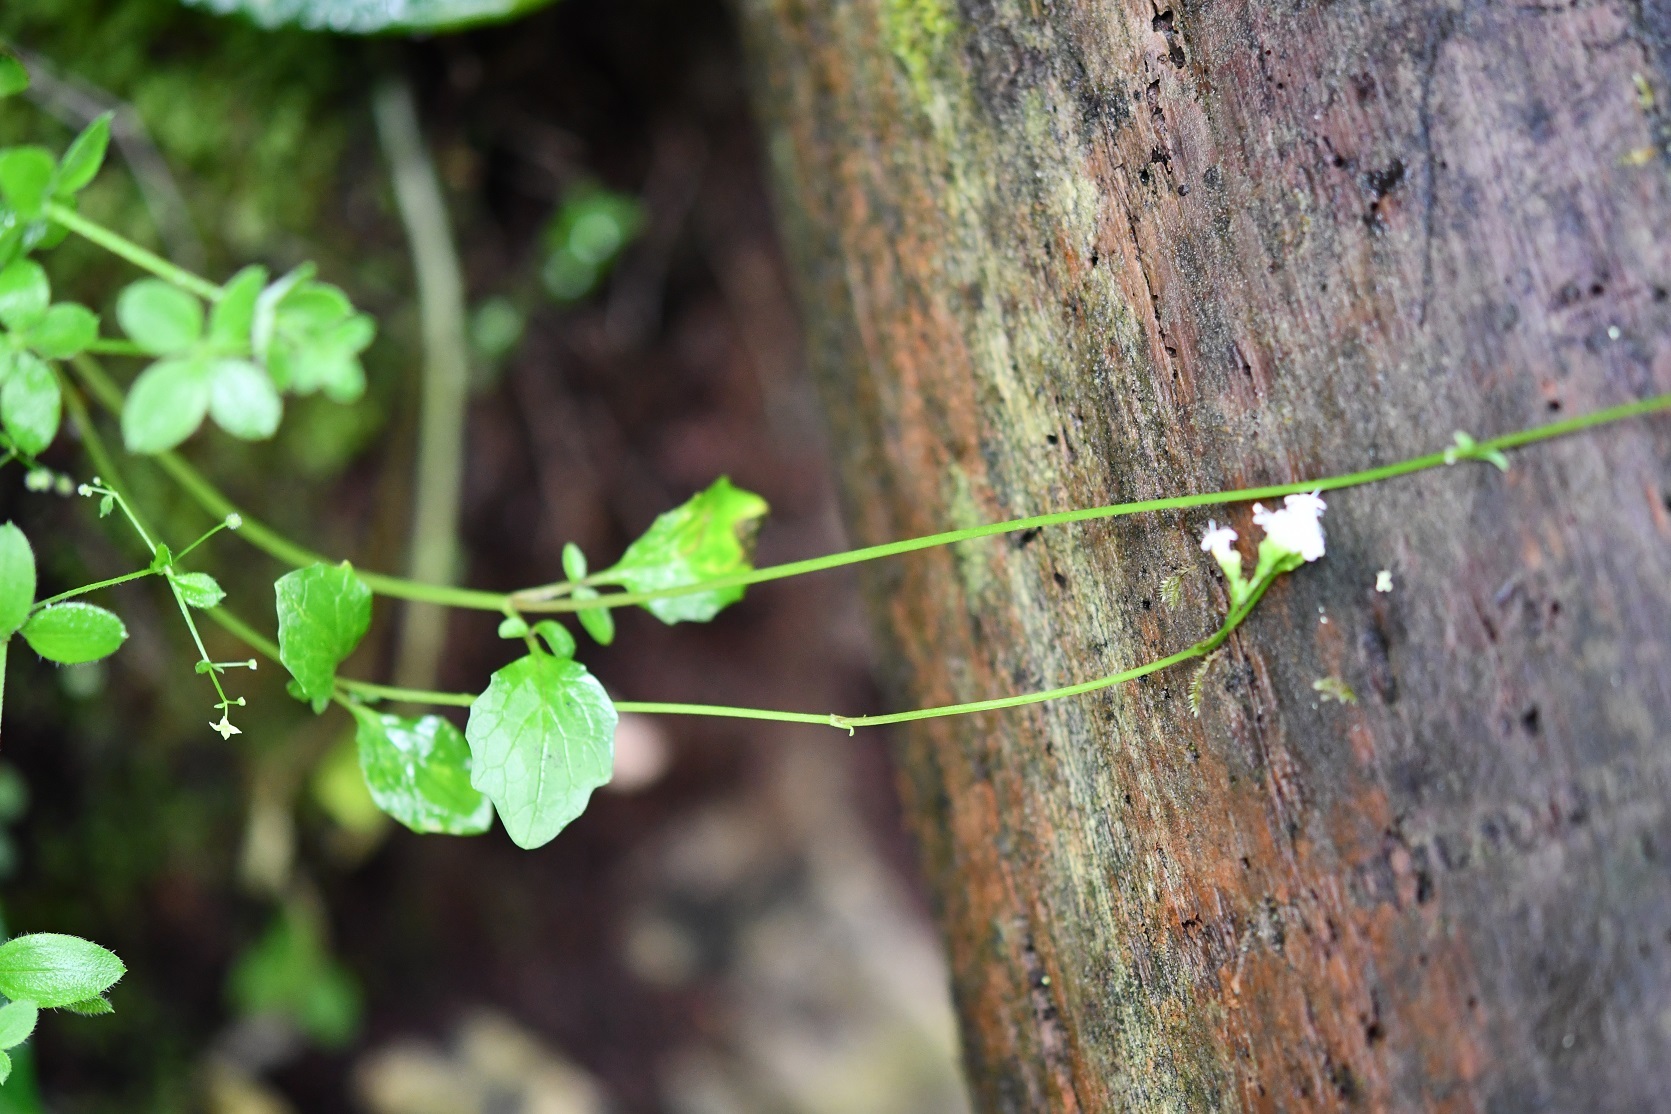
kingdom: Plantae
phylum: Tracheophyta
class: Magnoliopsida
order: Dipsacales
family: Caprifoliaceae
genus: Valeriana
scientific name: Valeriana deltoidea
